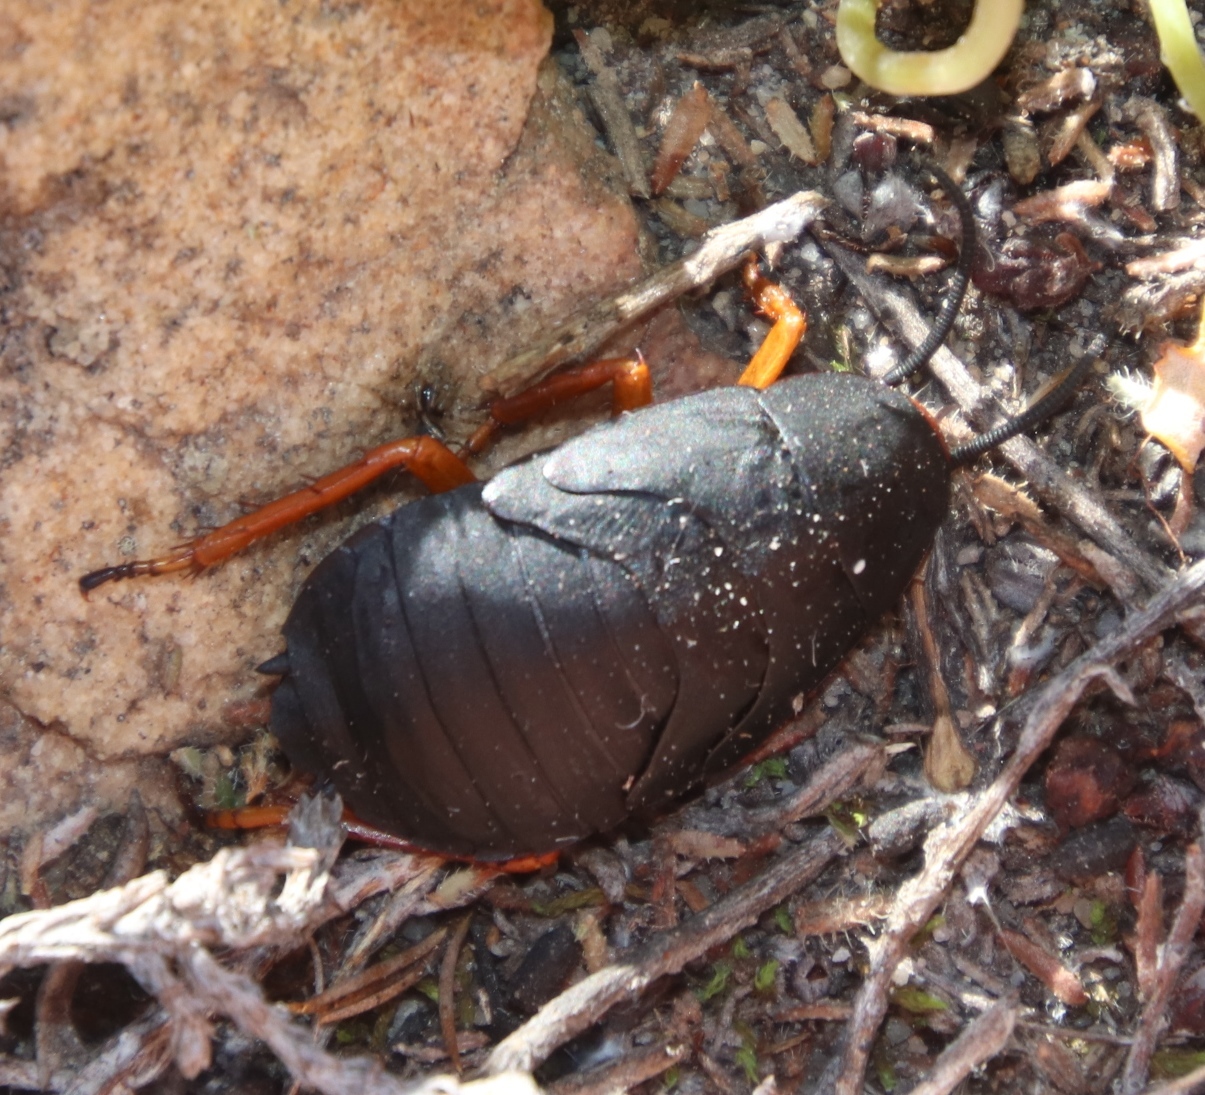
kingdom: Animalia
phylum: Arthropoda
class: Insecta
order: Blattodea
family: Blattidae
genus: Deropeltis
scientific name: Deropeltis erythrocephala
